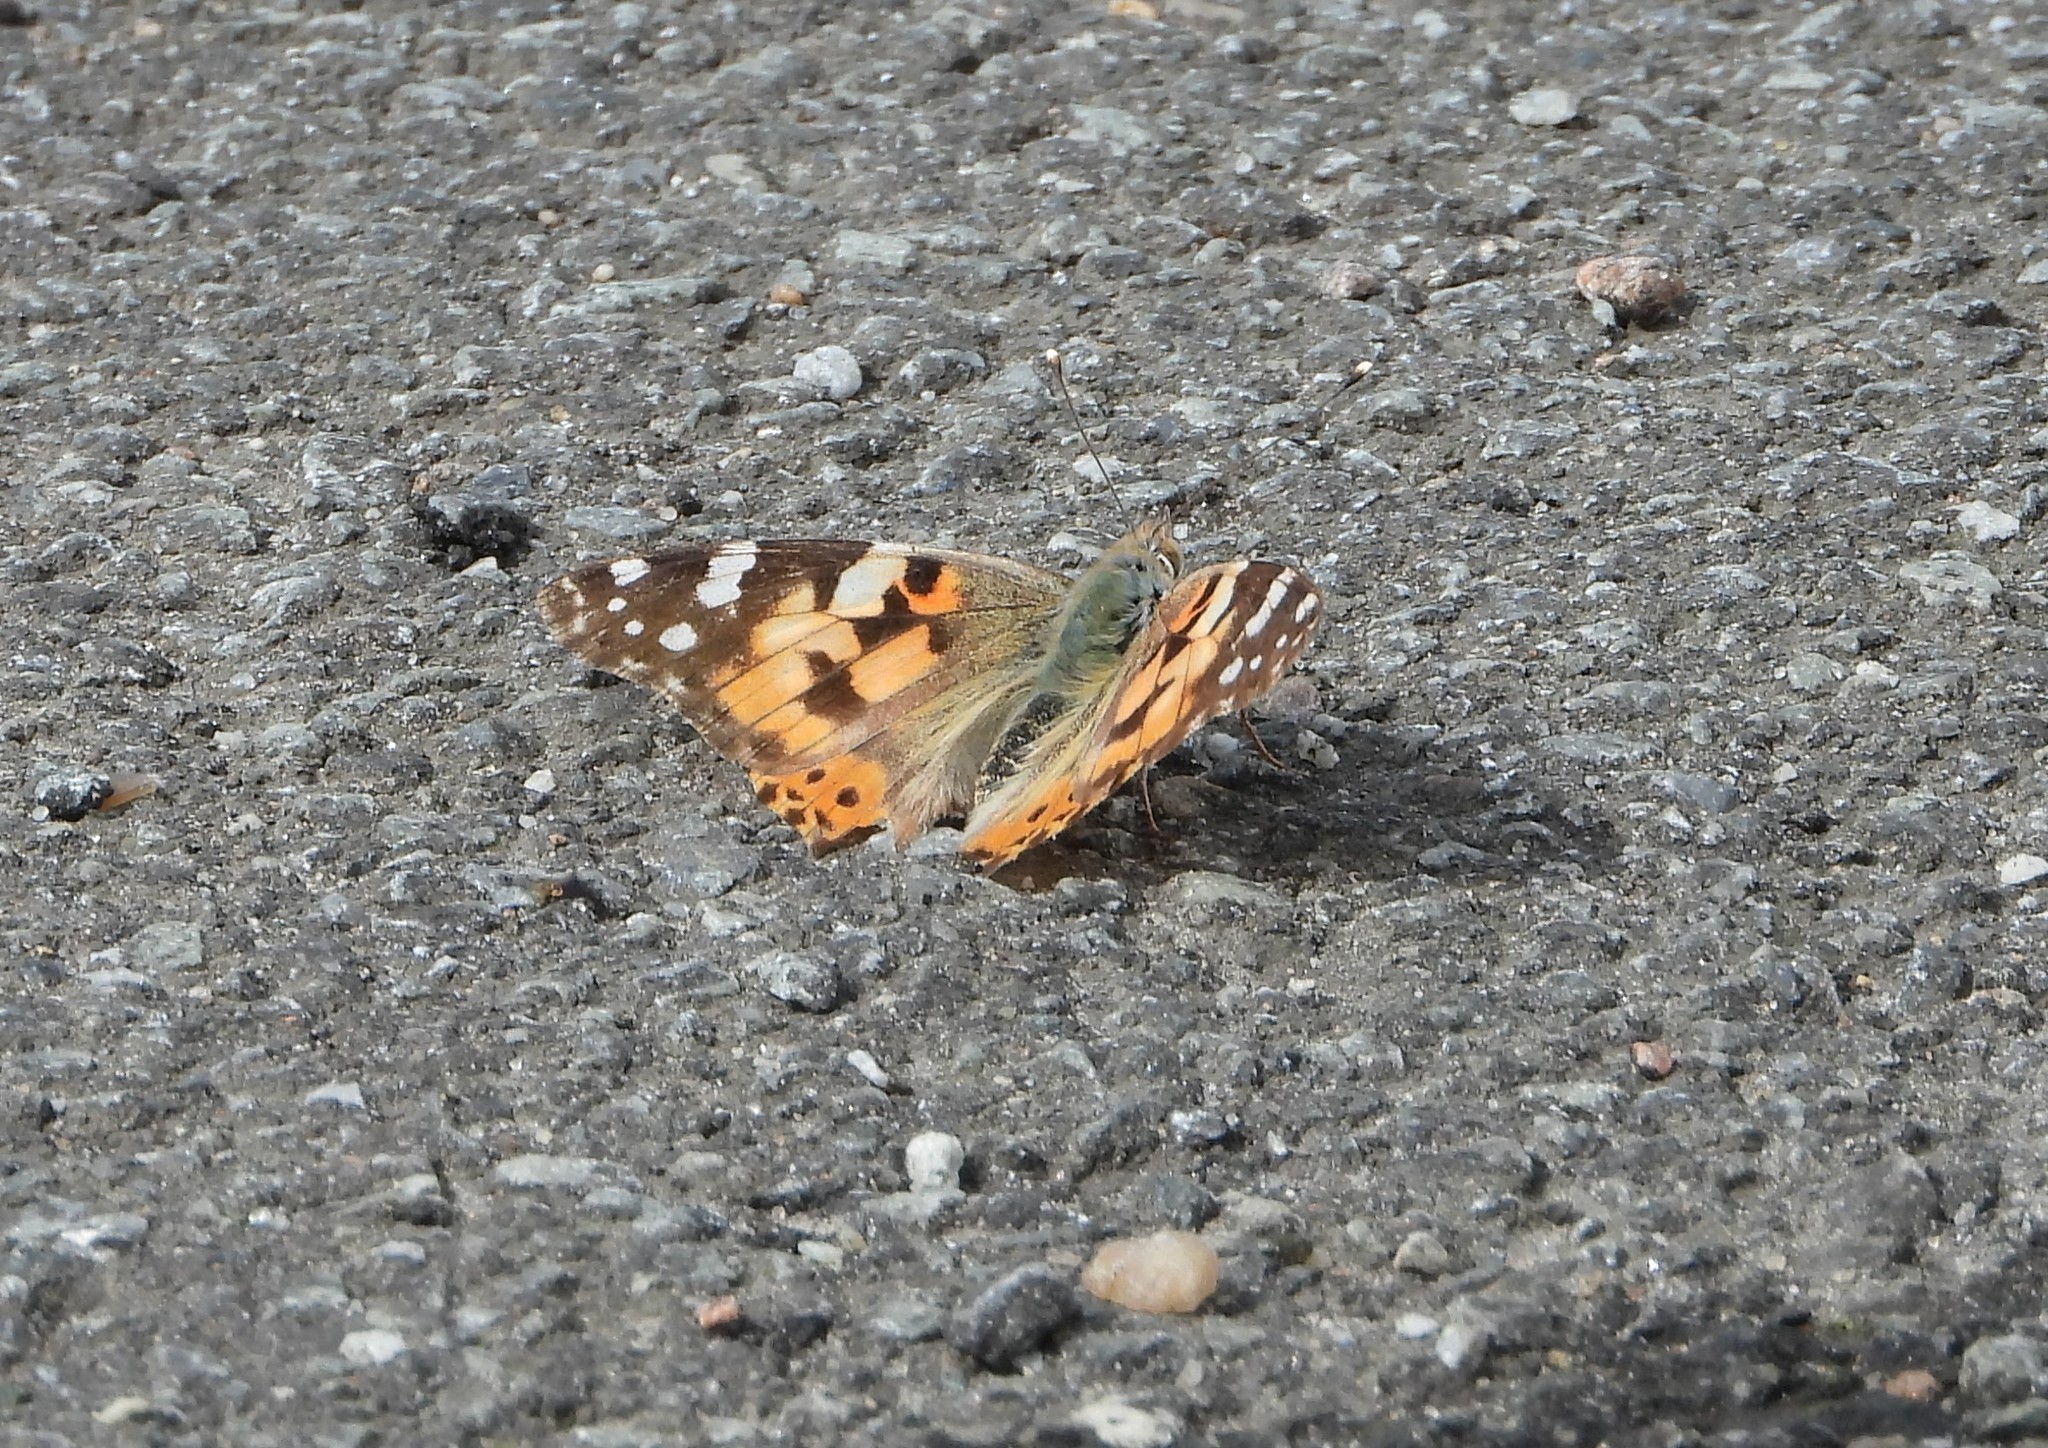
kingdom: Animalia
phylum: Arthropoda
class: Insecta
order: Lepidoptera
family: Nymphalidae
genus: Vanessa
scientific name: Vanessa cardui
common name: Painted lady
